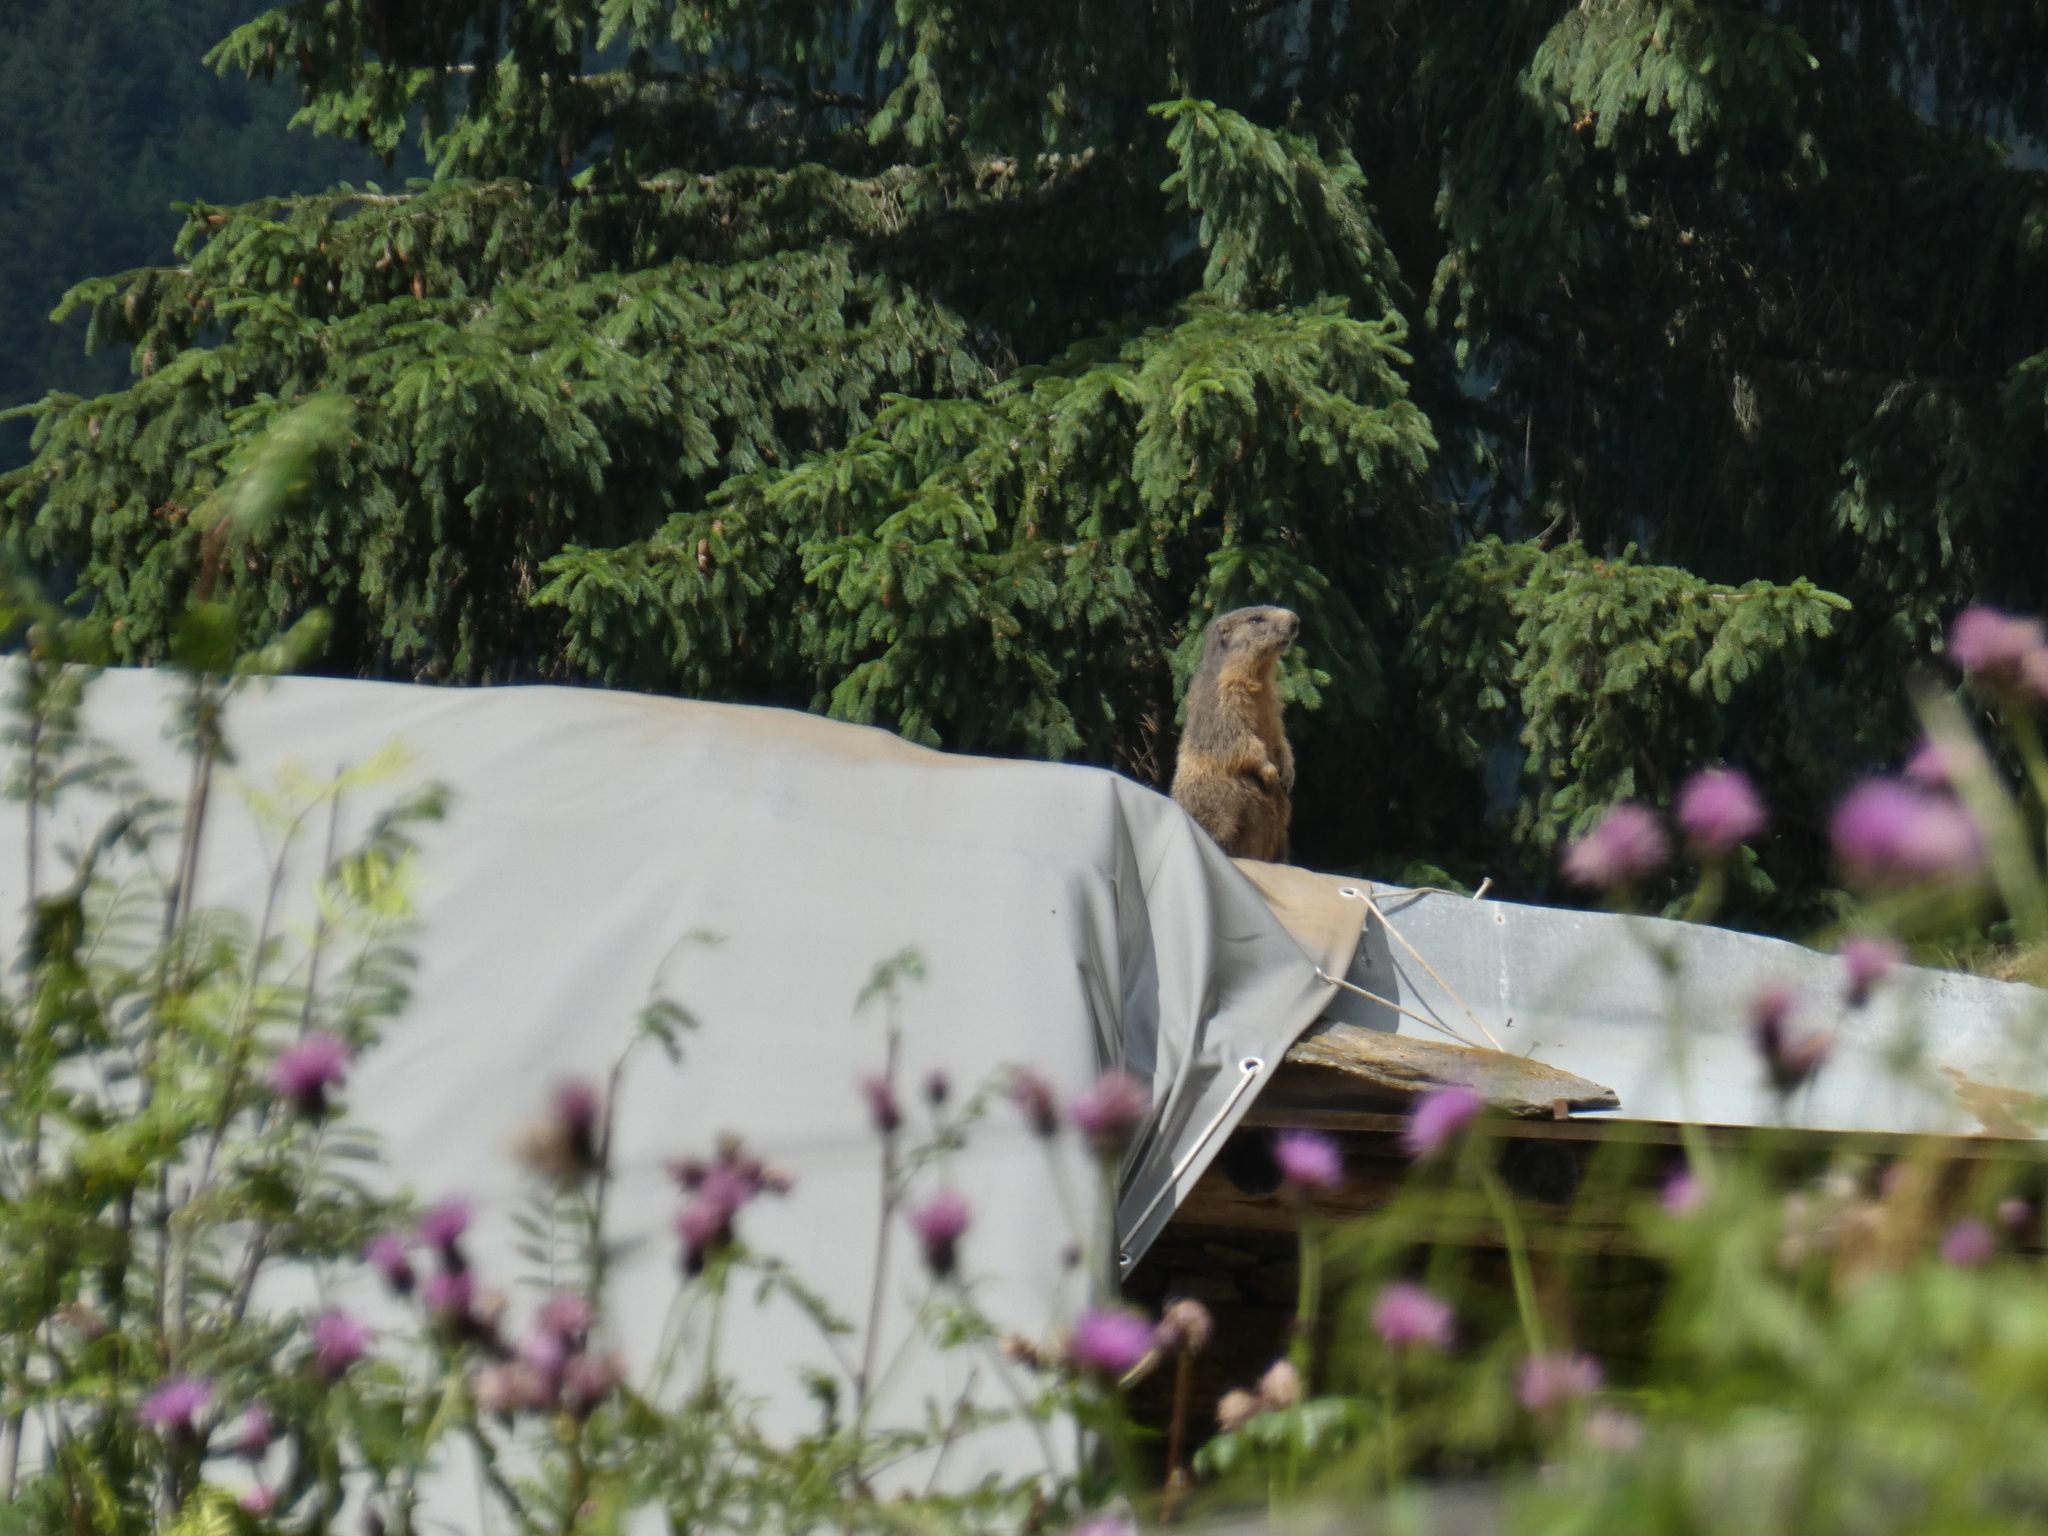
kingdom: Animalia
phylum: Chordata
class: Mammalia
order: Rodentia
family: Sciuridae
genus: Marmota
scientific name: Marmota marmota
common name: Alpine marmot
